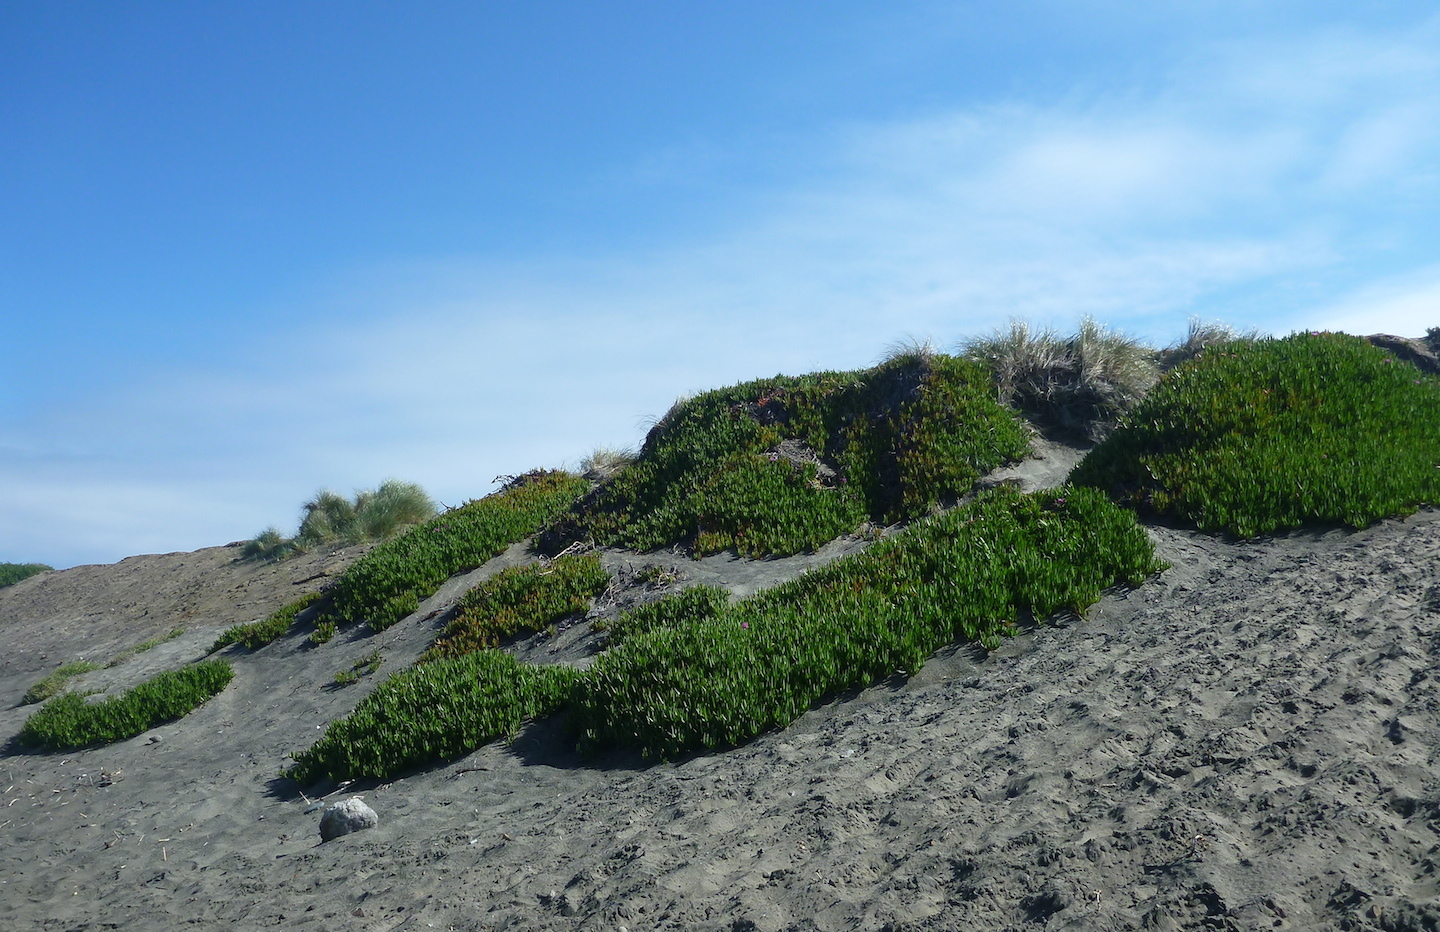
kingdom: Plantae
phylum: Tracheophyta
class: Magnoliopsida
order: Caryophyllales
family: Aizoaceae
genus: Carpobrotus
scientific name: Carpobrotus edulis
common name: Hottentot-fig
